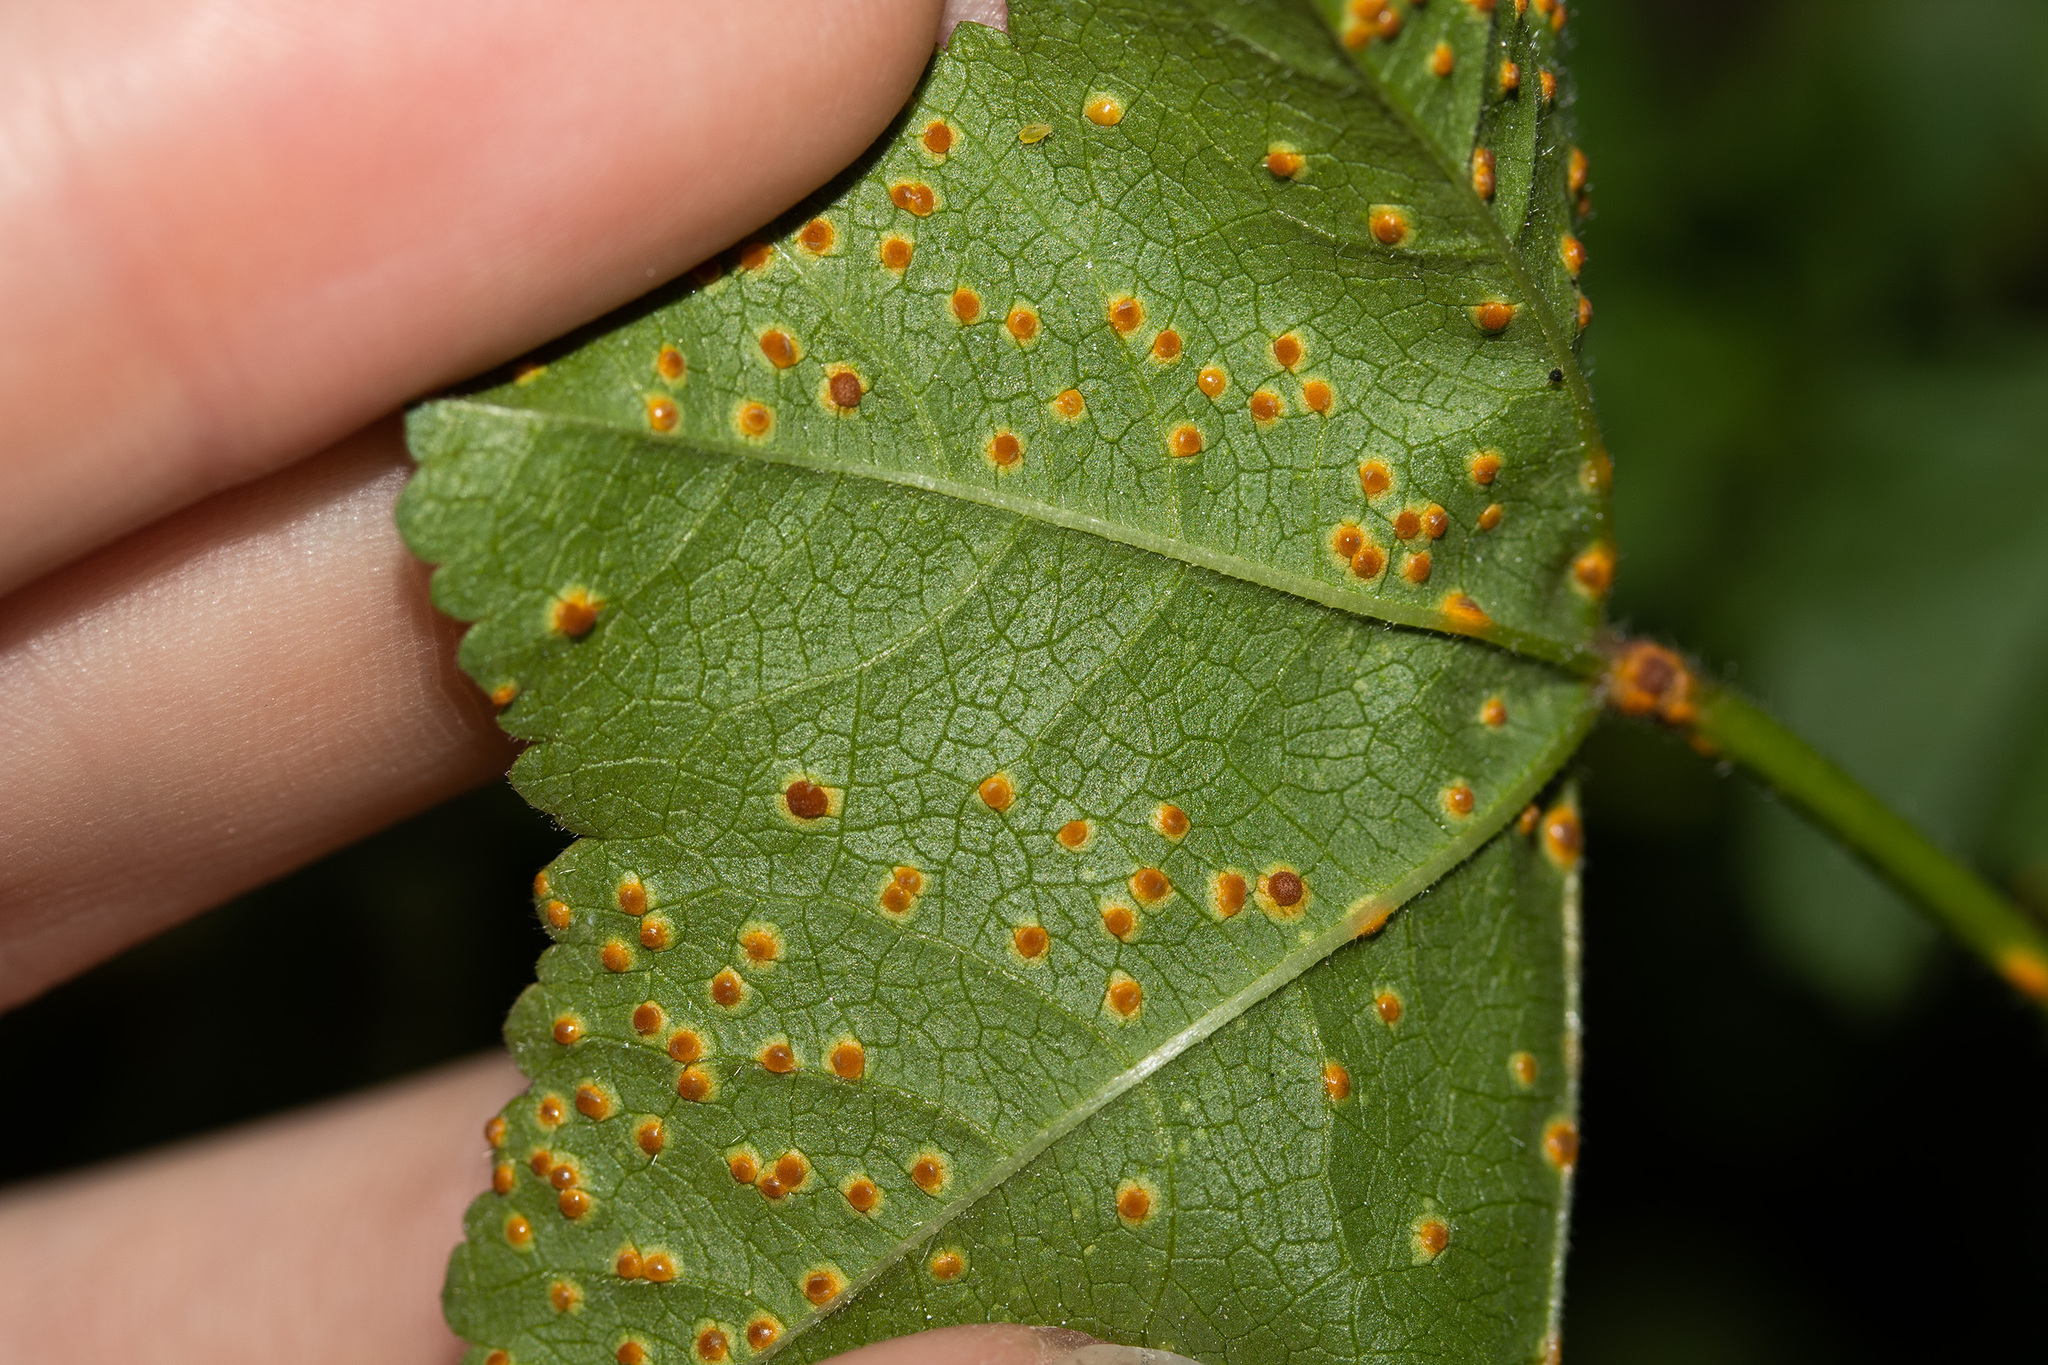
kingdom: Fungi
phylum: Basidiomycota
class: Pucciniomycetes
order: Pucciniales
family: Pucciniaceae
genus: Puccinia
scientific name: Puccinia malvacearum
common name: Hollyhock rust
